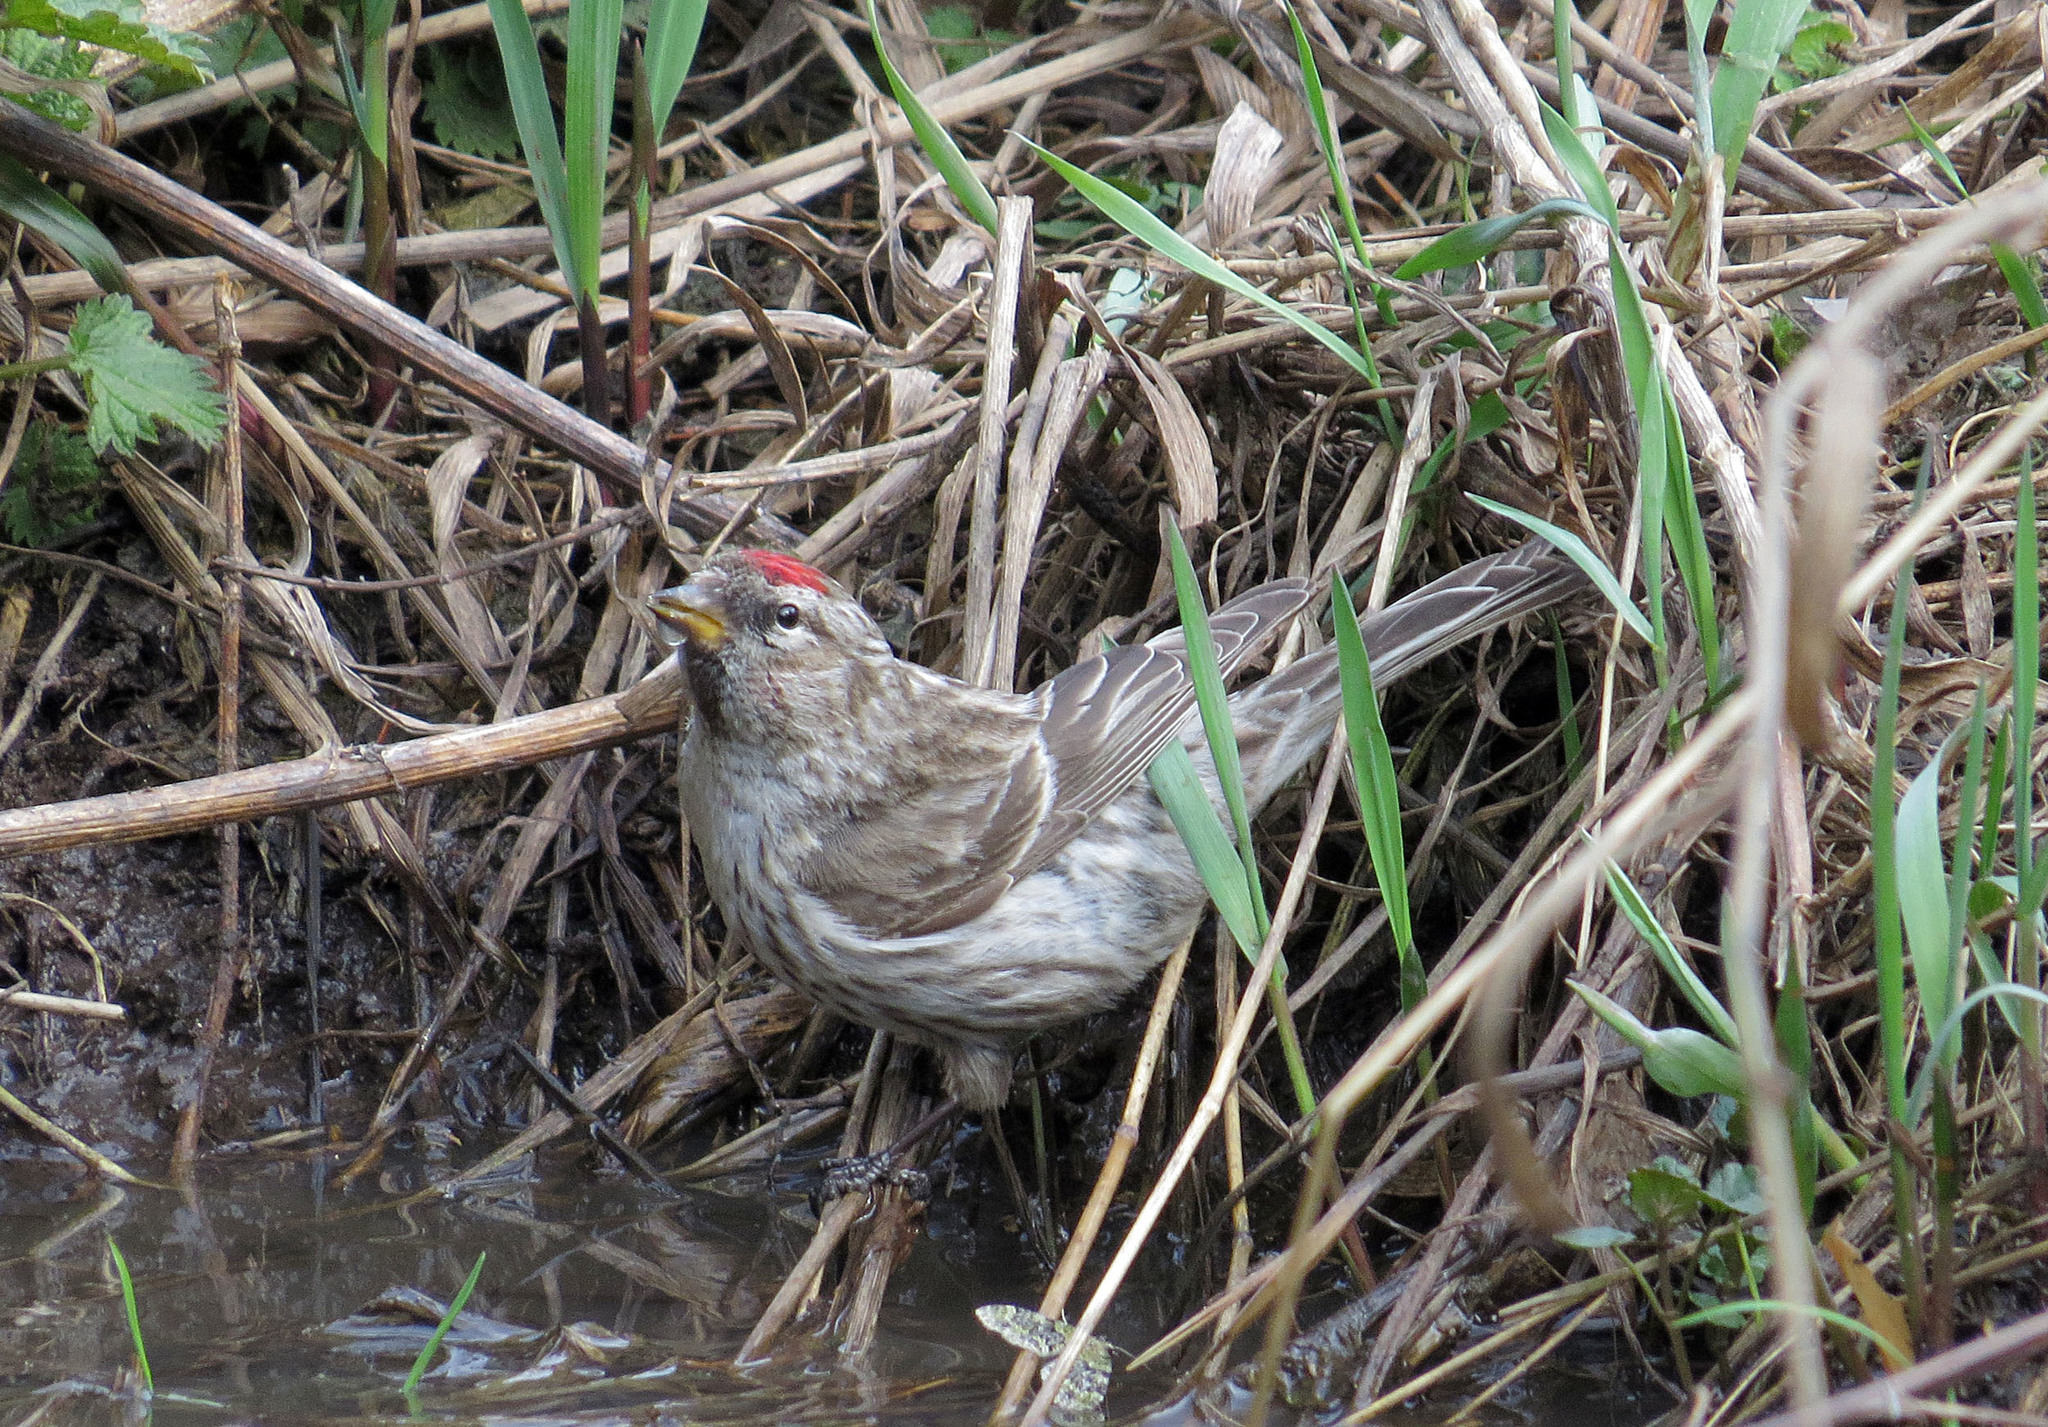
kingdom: Animalia
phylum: Chordata
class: Aves
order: Passeriformes
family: Fringillidae
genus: Acanthis
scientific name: Acanthis flammea
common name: Common redpoll
